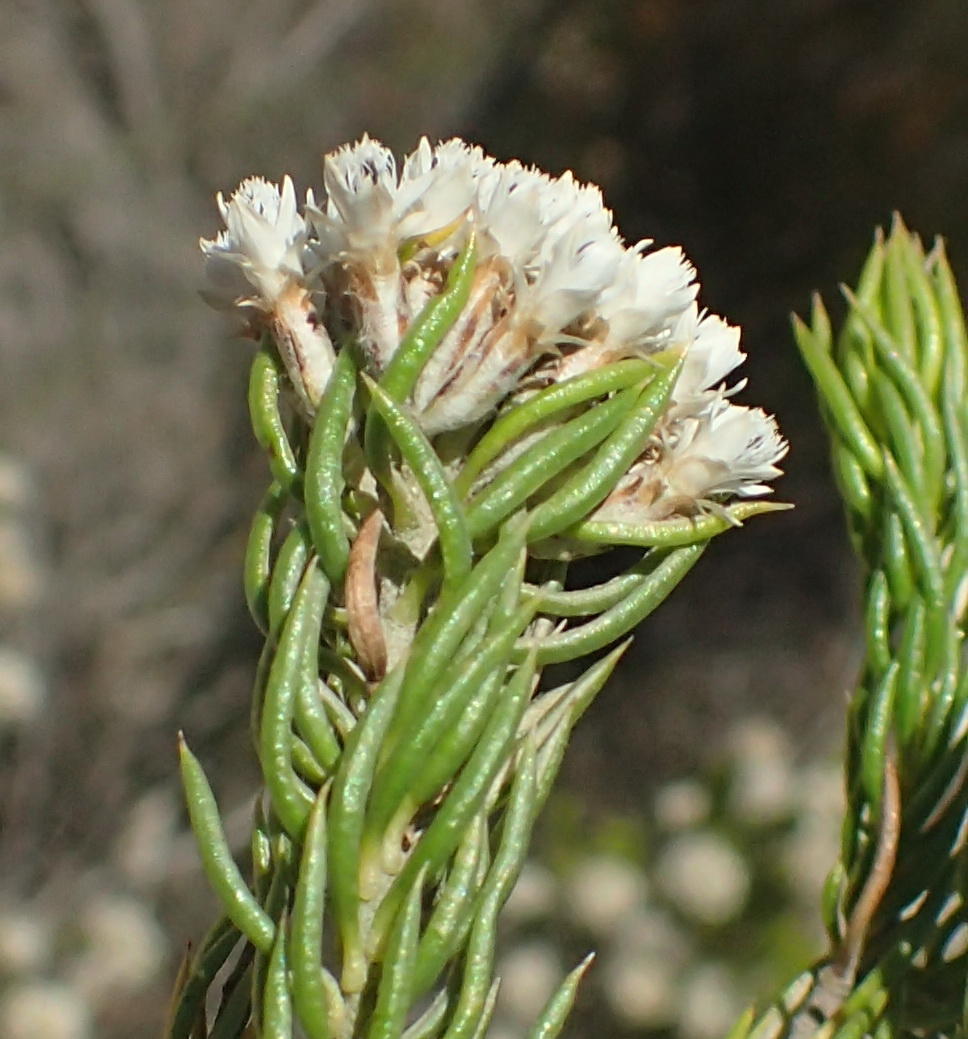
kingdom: Plantae
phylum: Tracheophyta
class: Magnoliopsida
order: Asterales
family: Asteraceae
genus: Metalasia
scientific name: Metalasia galpinii
